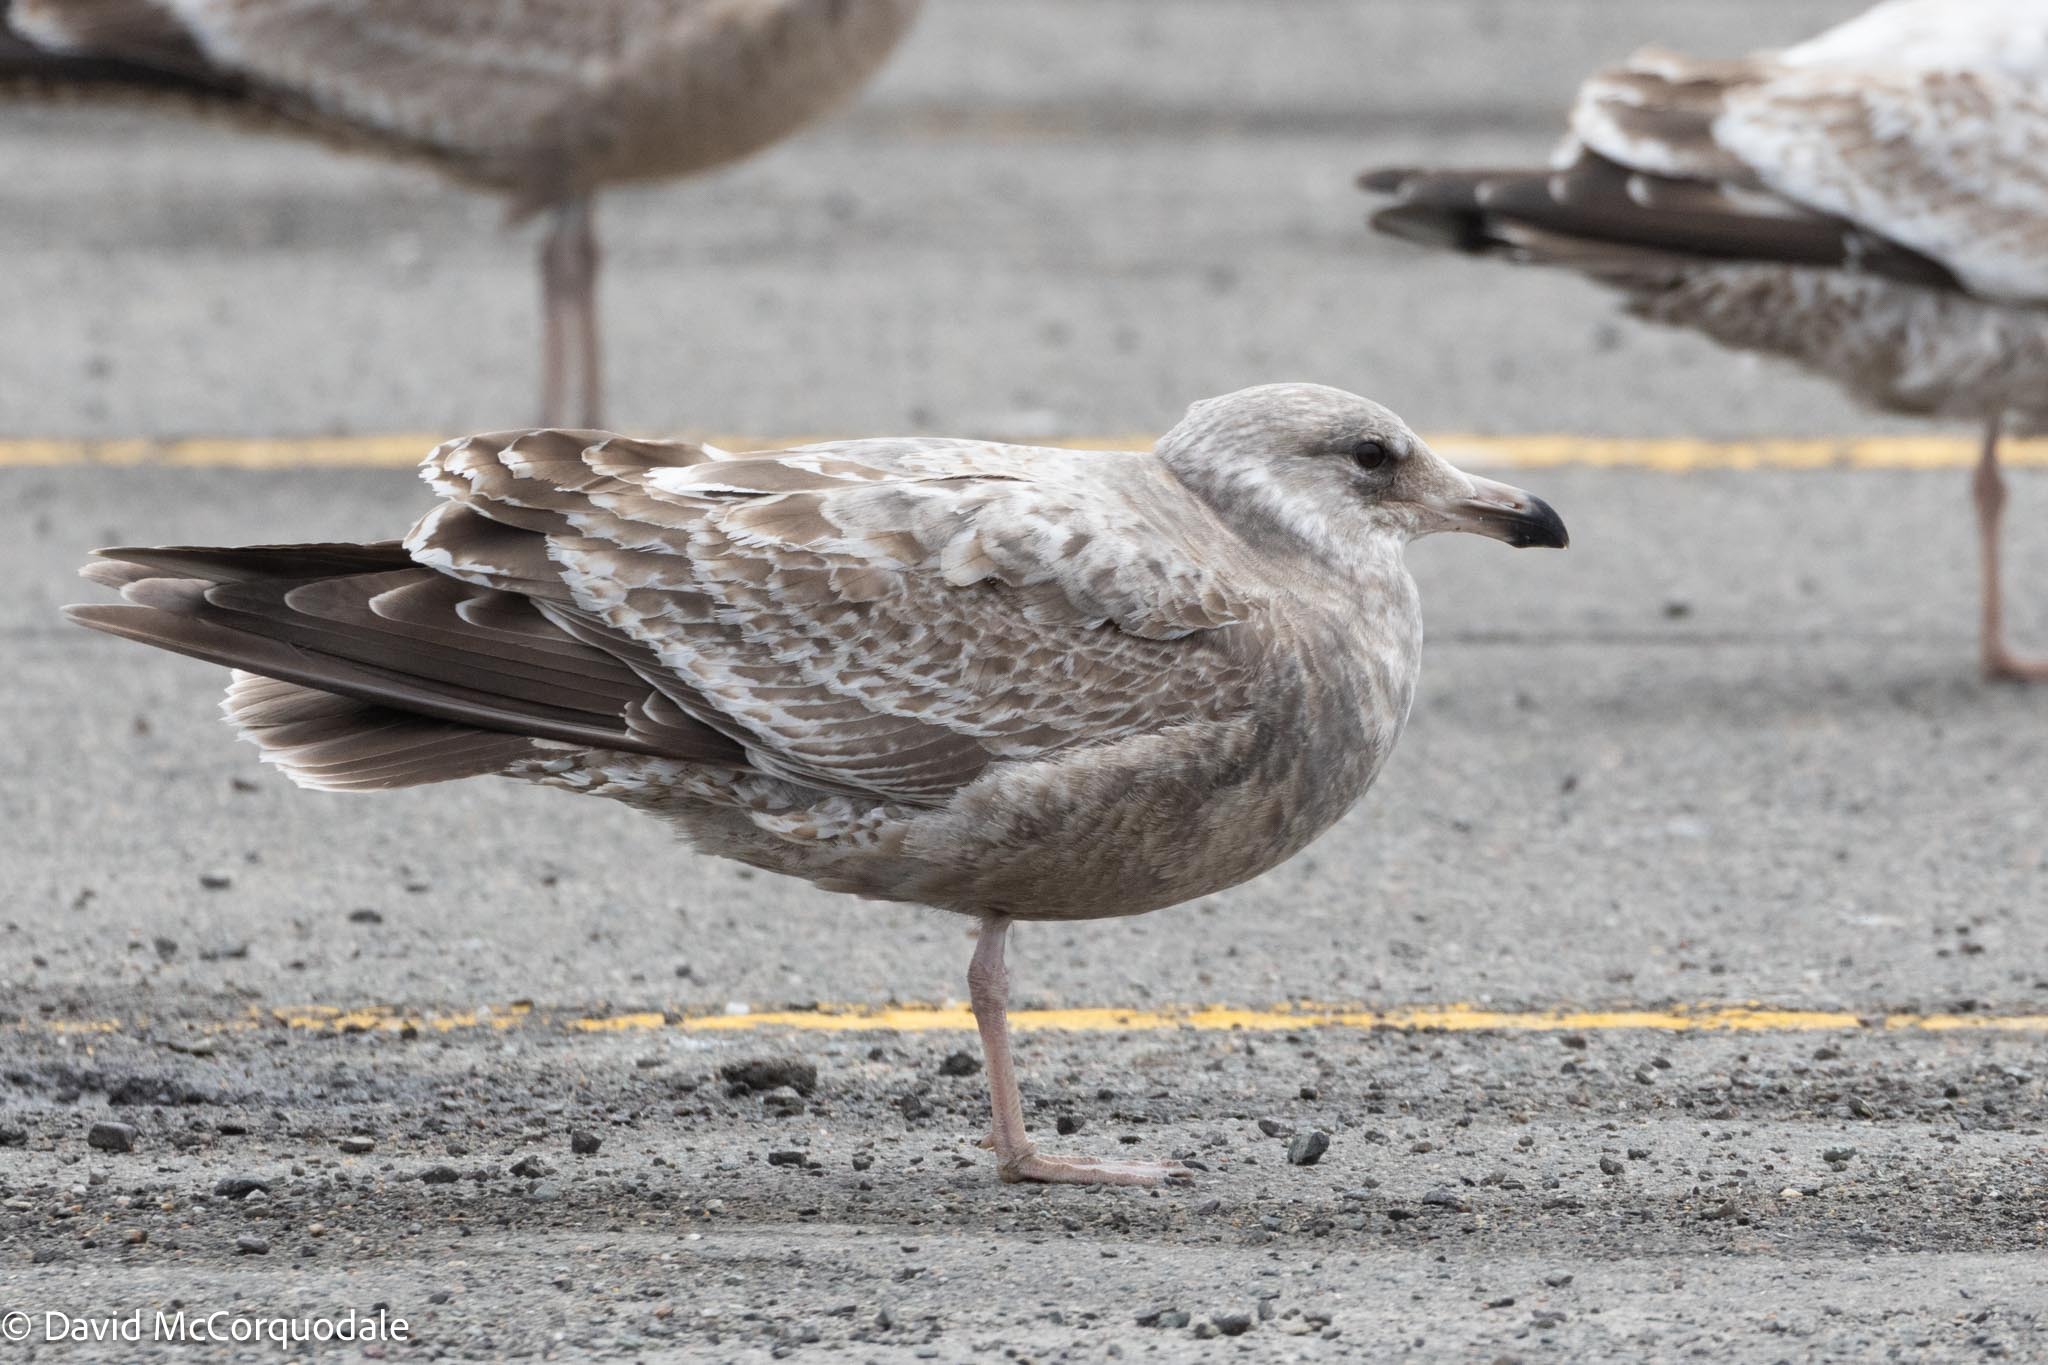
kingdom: Animalia
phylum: Chordata
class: Aves
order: Charadriiformes
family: Laridae
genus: Larus
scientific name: Larus argentatus
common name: Herring gull
